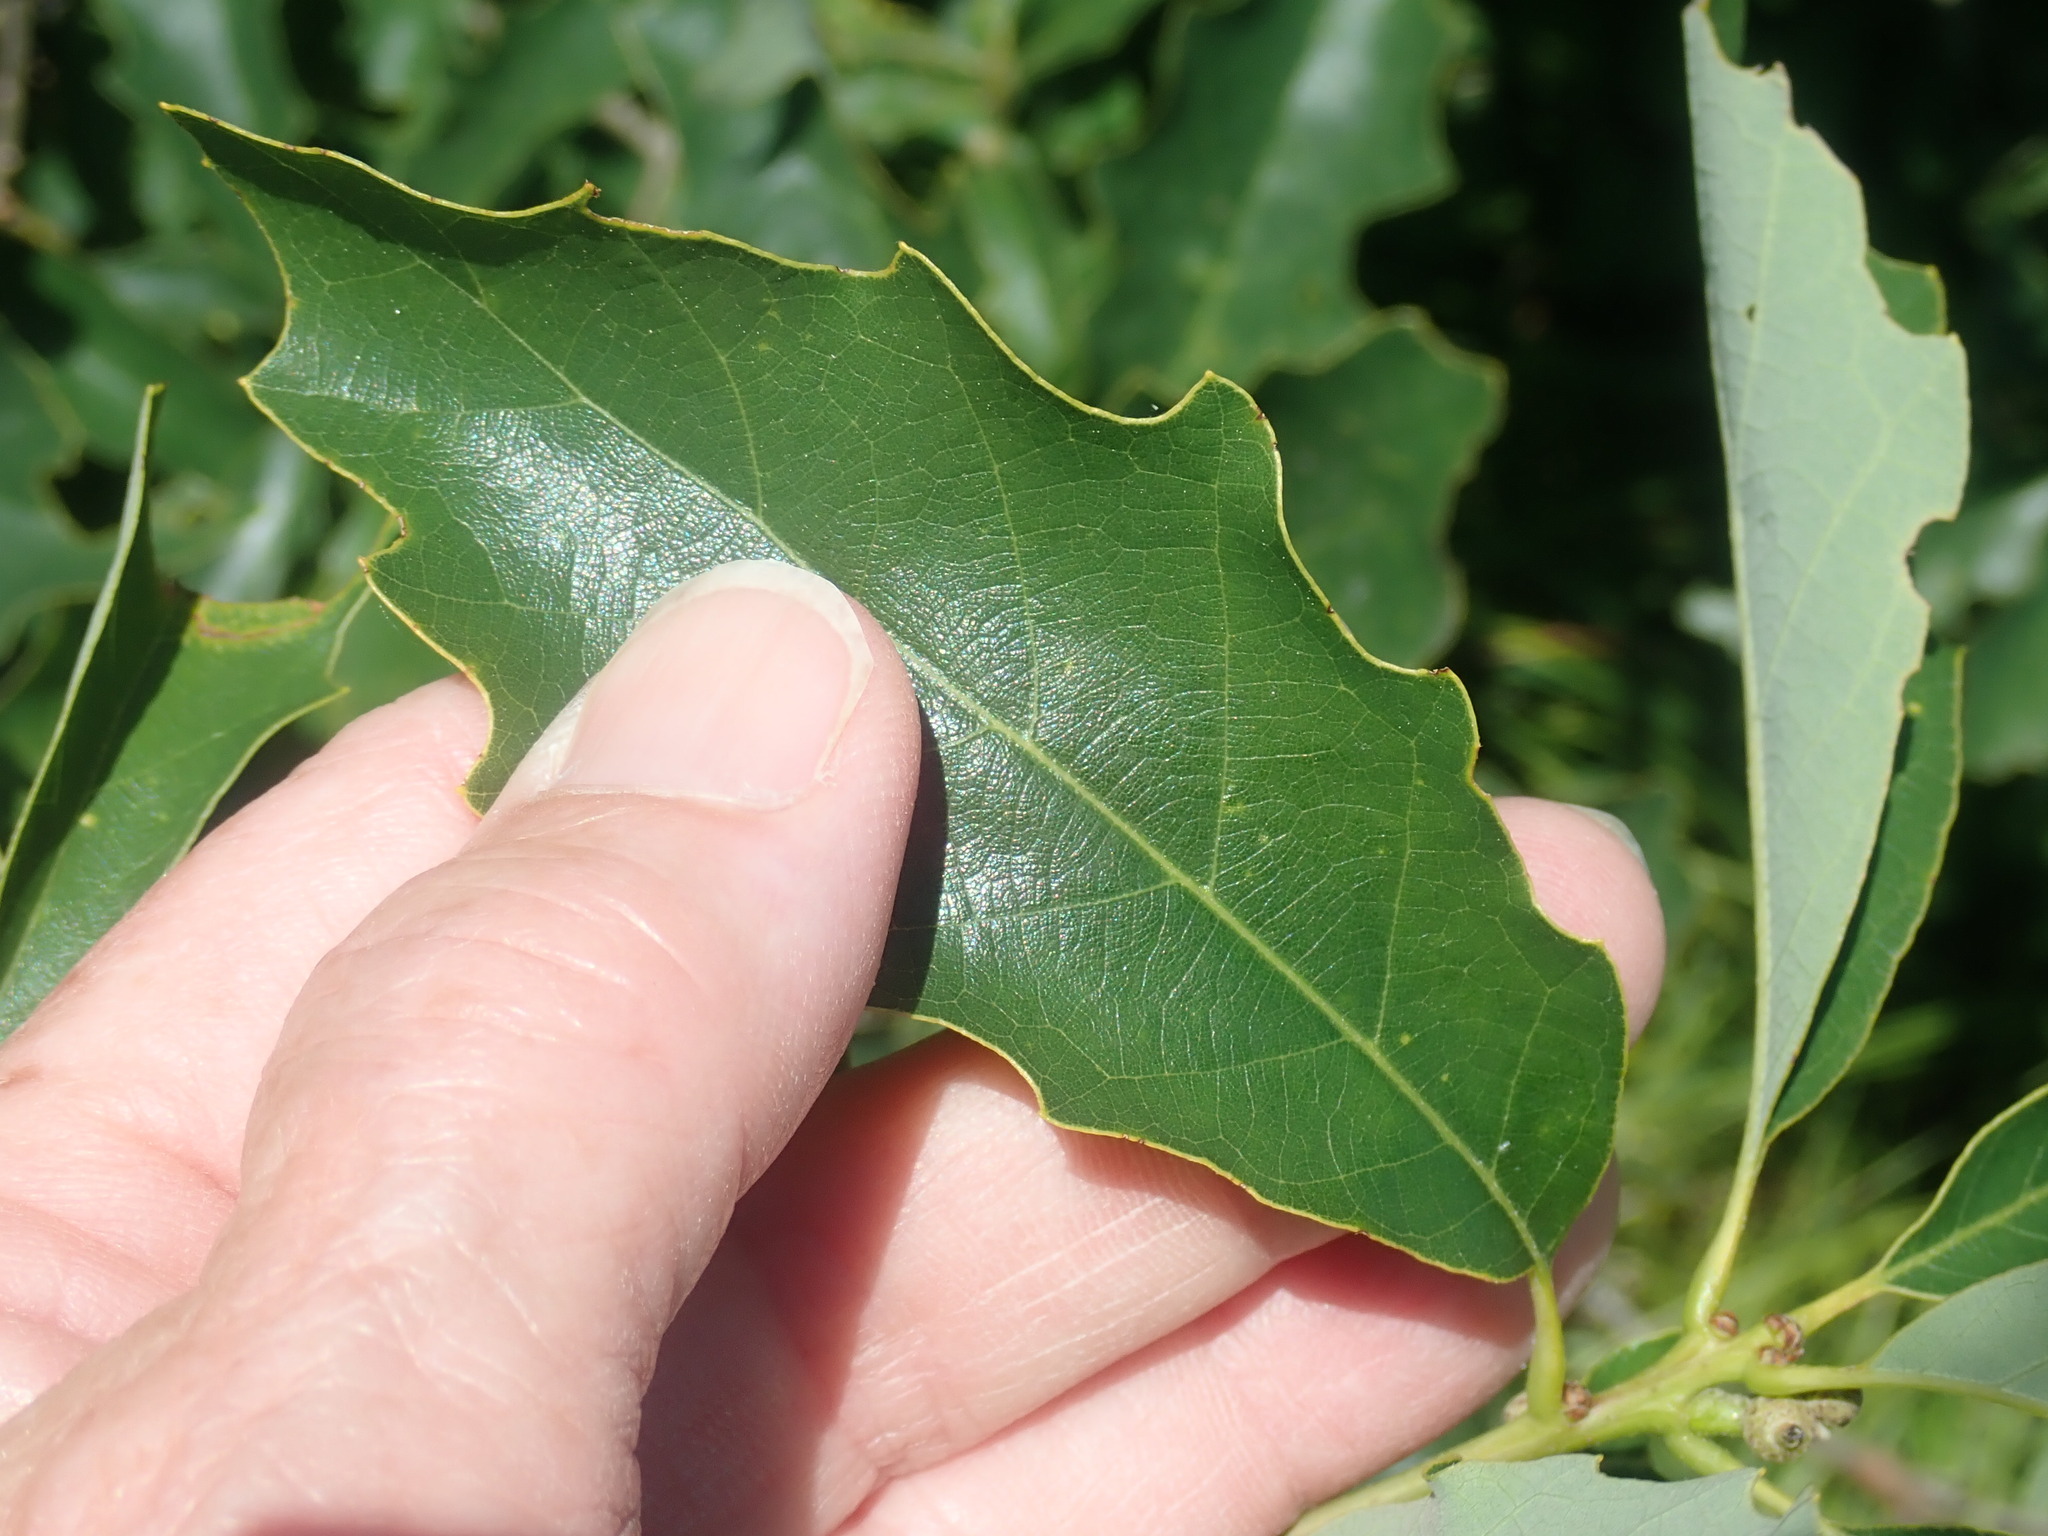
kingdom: Plantae
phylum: Tracheophyta
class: Magnoliopsida
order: Fagales
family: Fagaceae
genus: Quercus
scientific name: Quercus prinoides
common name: Dwarf chinkapin oak
